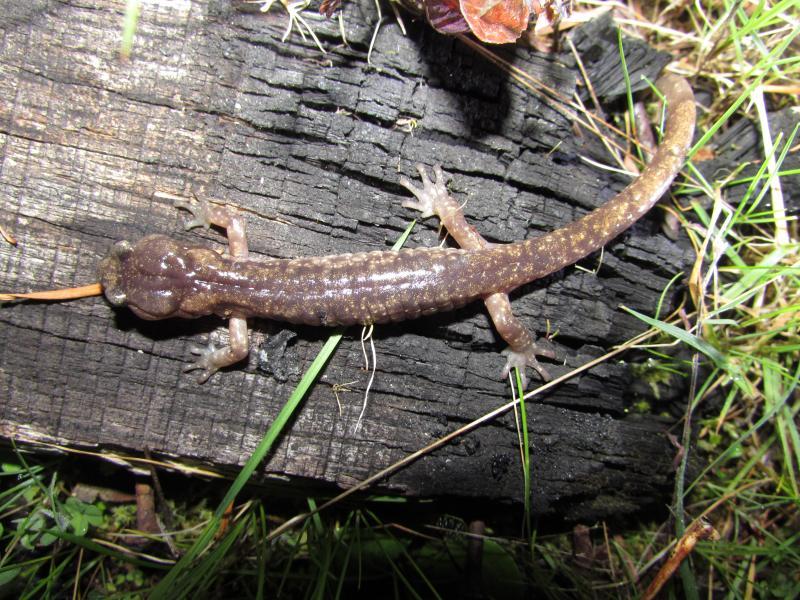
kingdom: Animalia
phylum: Chordata
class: Amphibia
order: Caudata
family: Plethodontidae
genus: Aneides
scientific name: Aneides ferreus
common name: Clouded salamander
